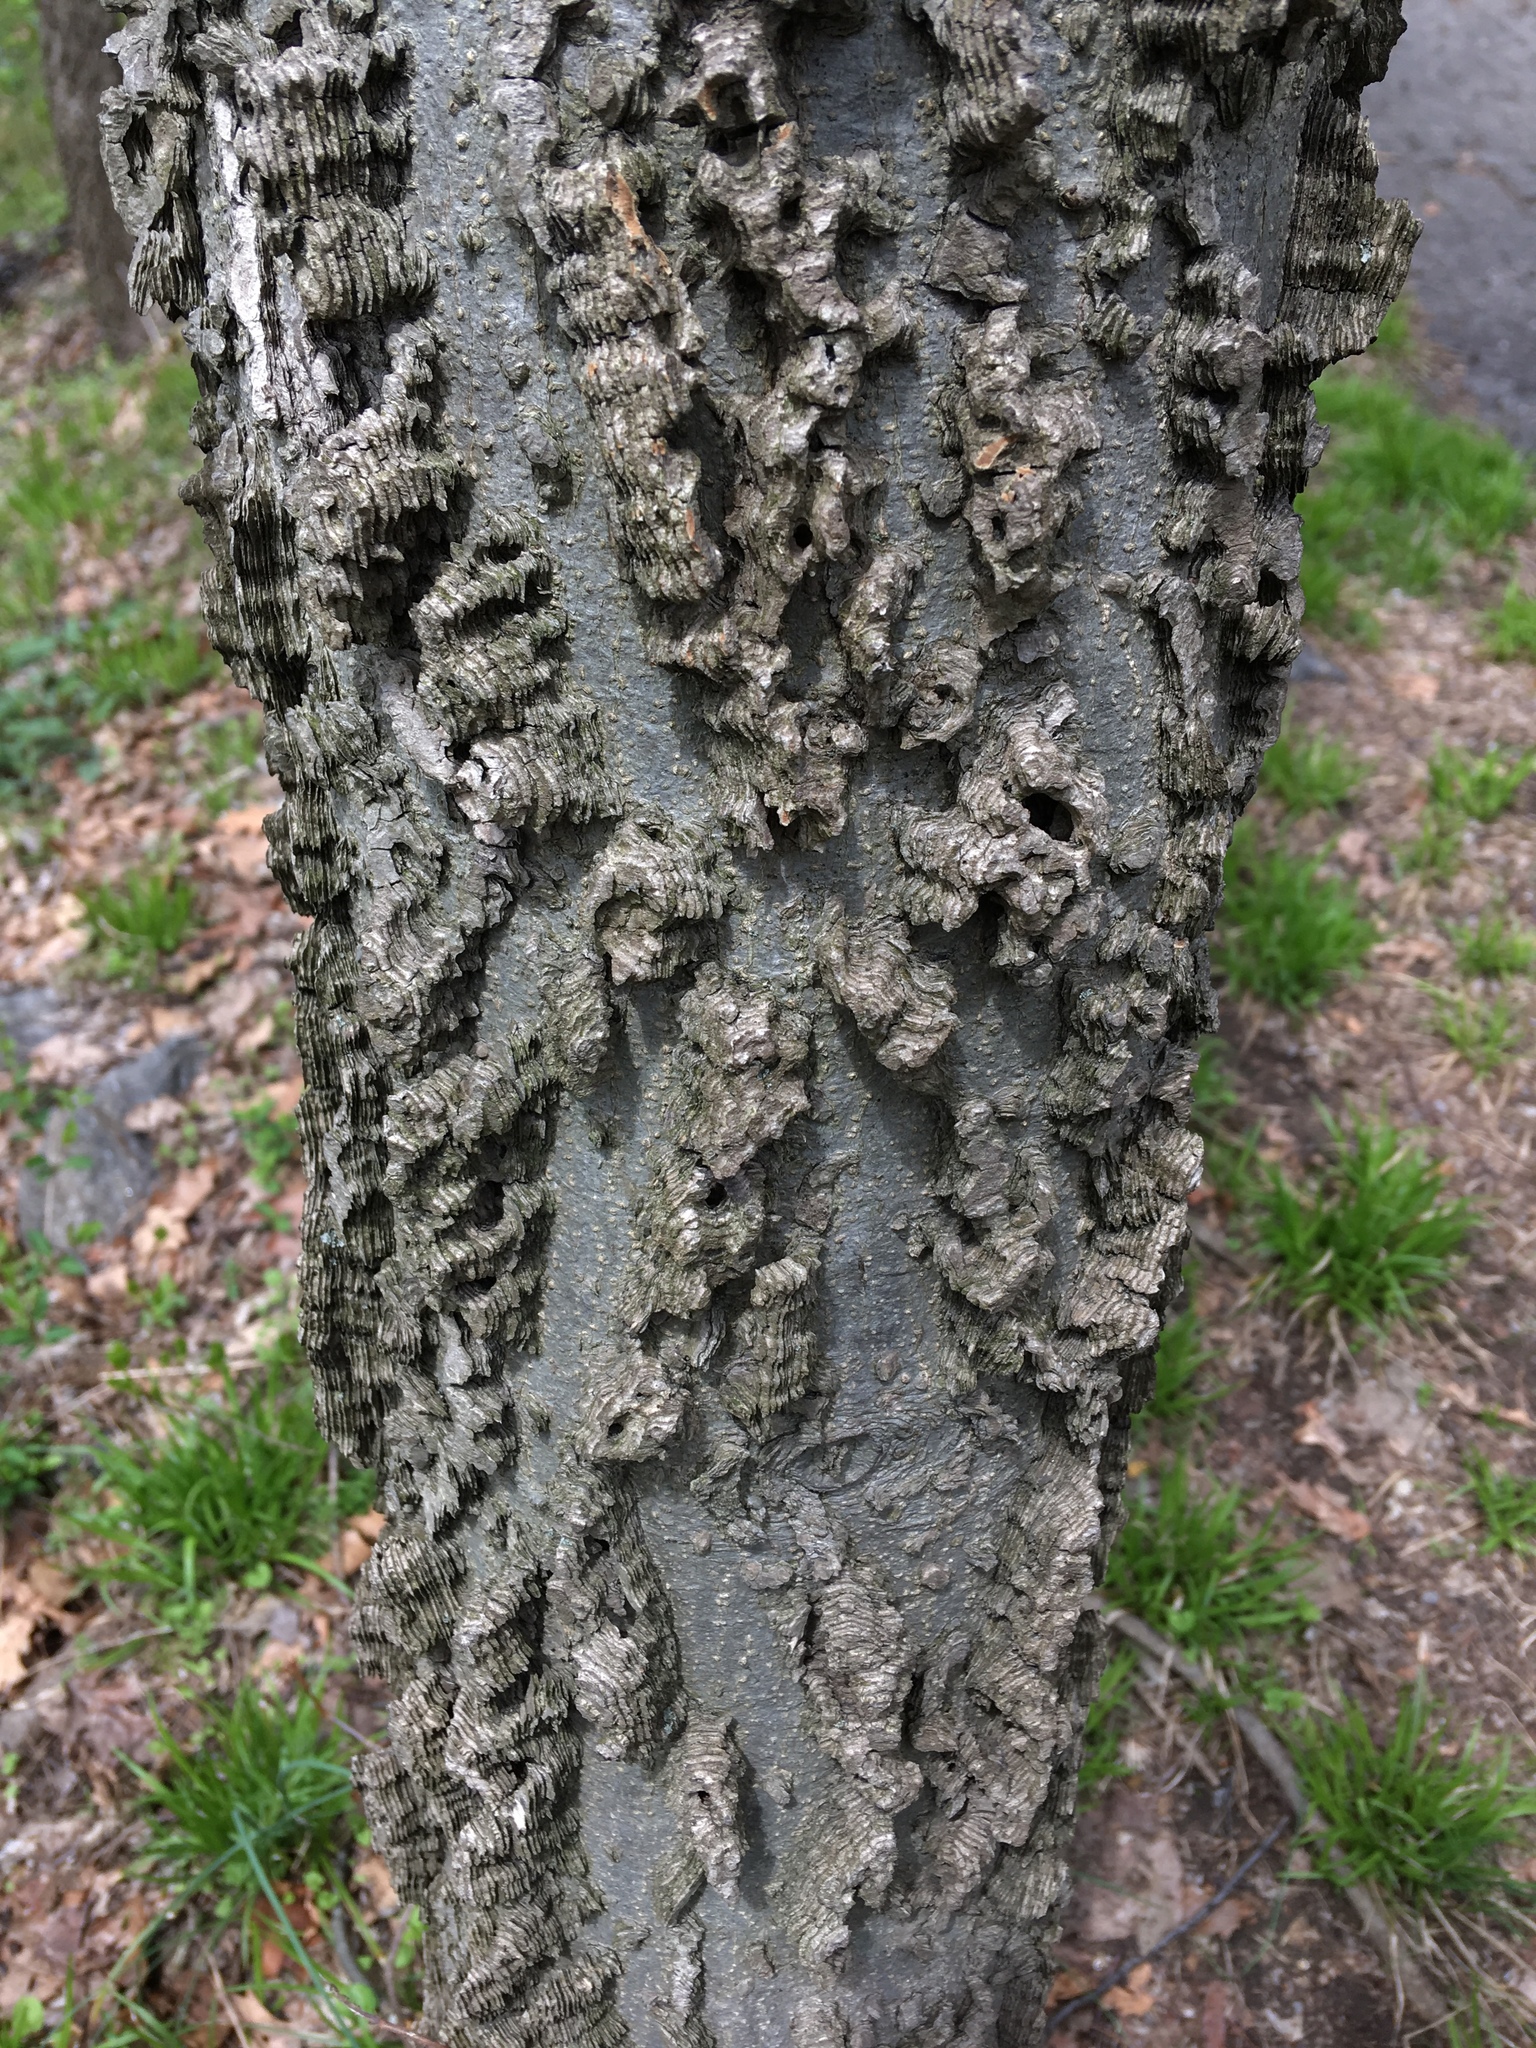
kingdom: Plantae
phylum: Tracheophyta
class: Magnoliopsida
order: Rosales
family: Cannabaceae
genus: Celtis
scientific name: Celtis occidentalis
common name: Common hackberry
